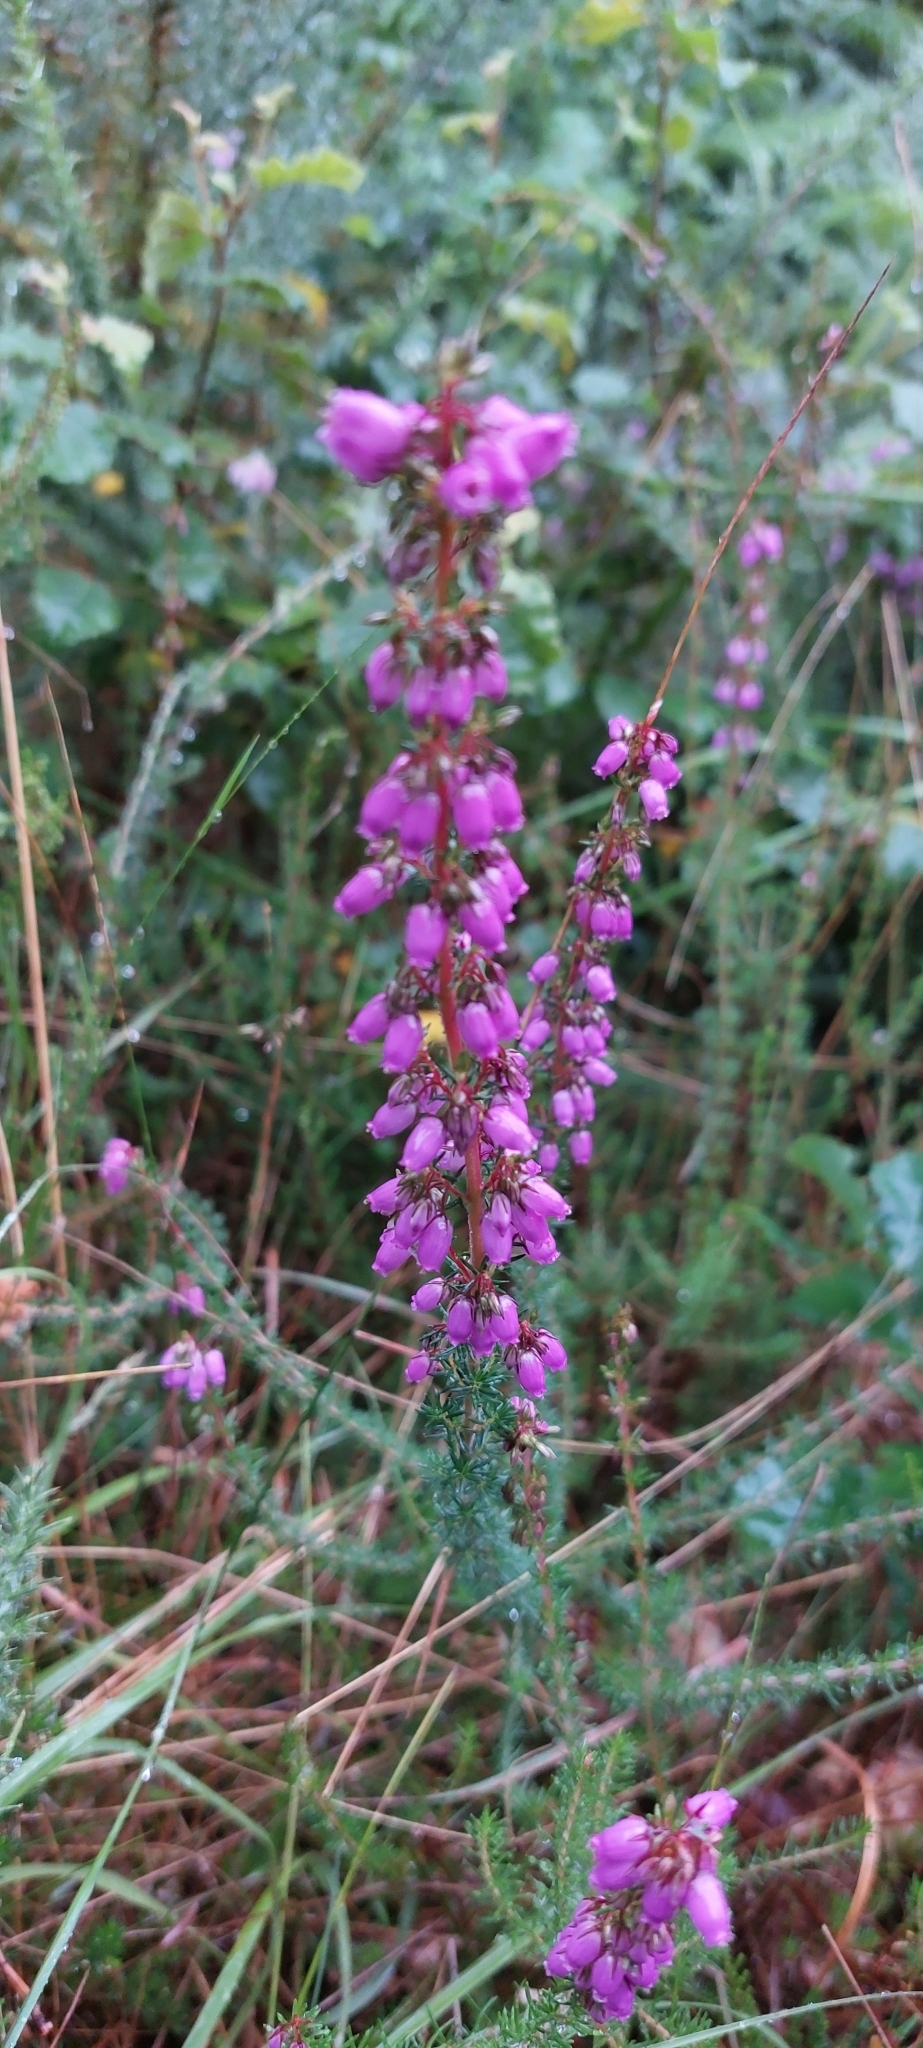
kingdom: Plantae
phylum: Tracheophyta
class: Magnoliopsida
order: Ericales
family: Ericaceae
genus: Erica
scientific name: Erica cinerea
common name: Bell heather
